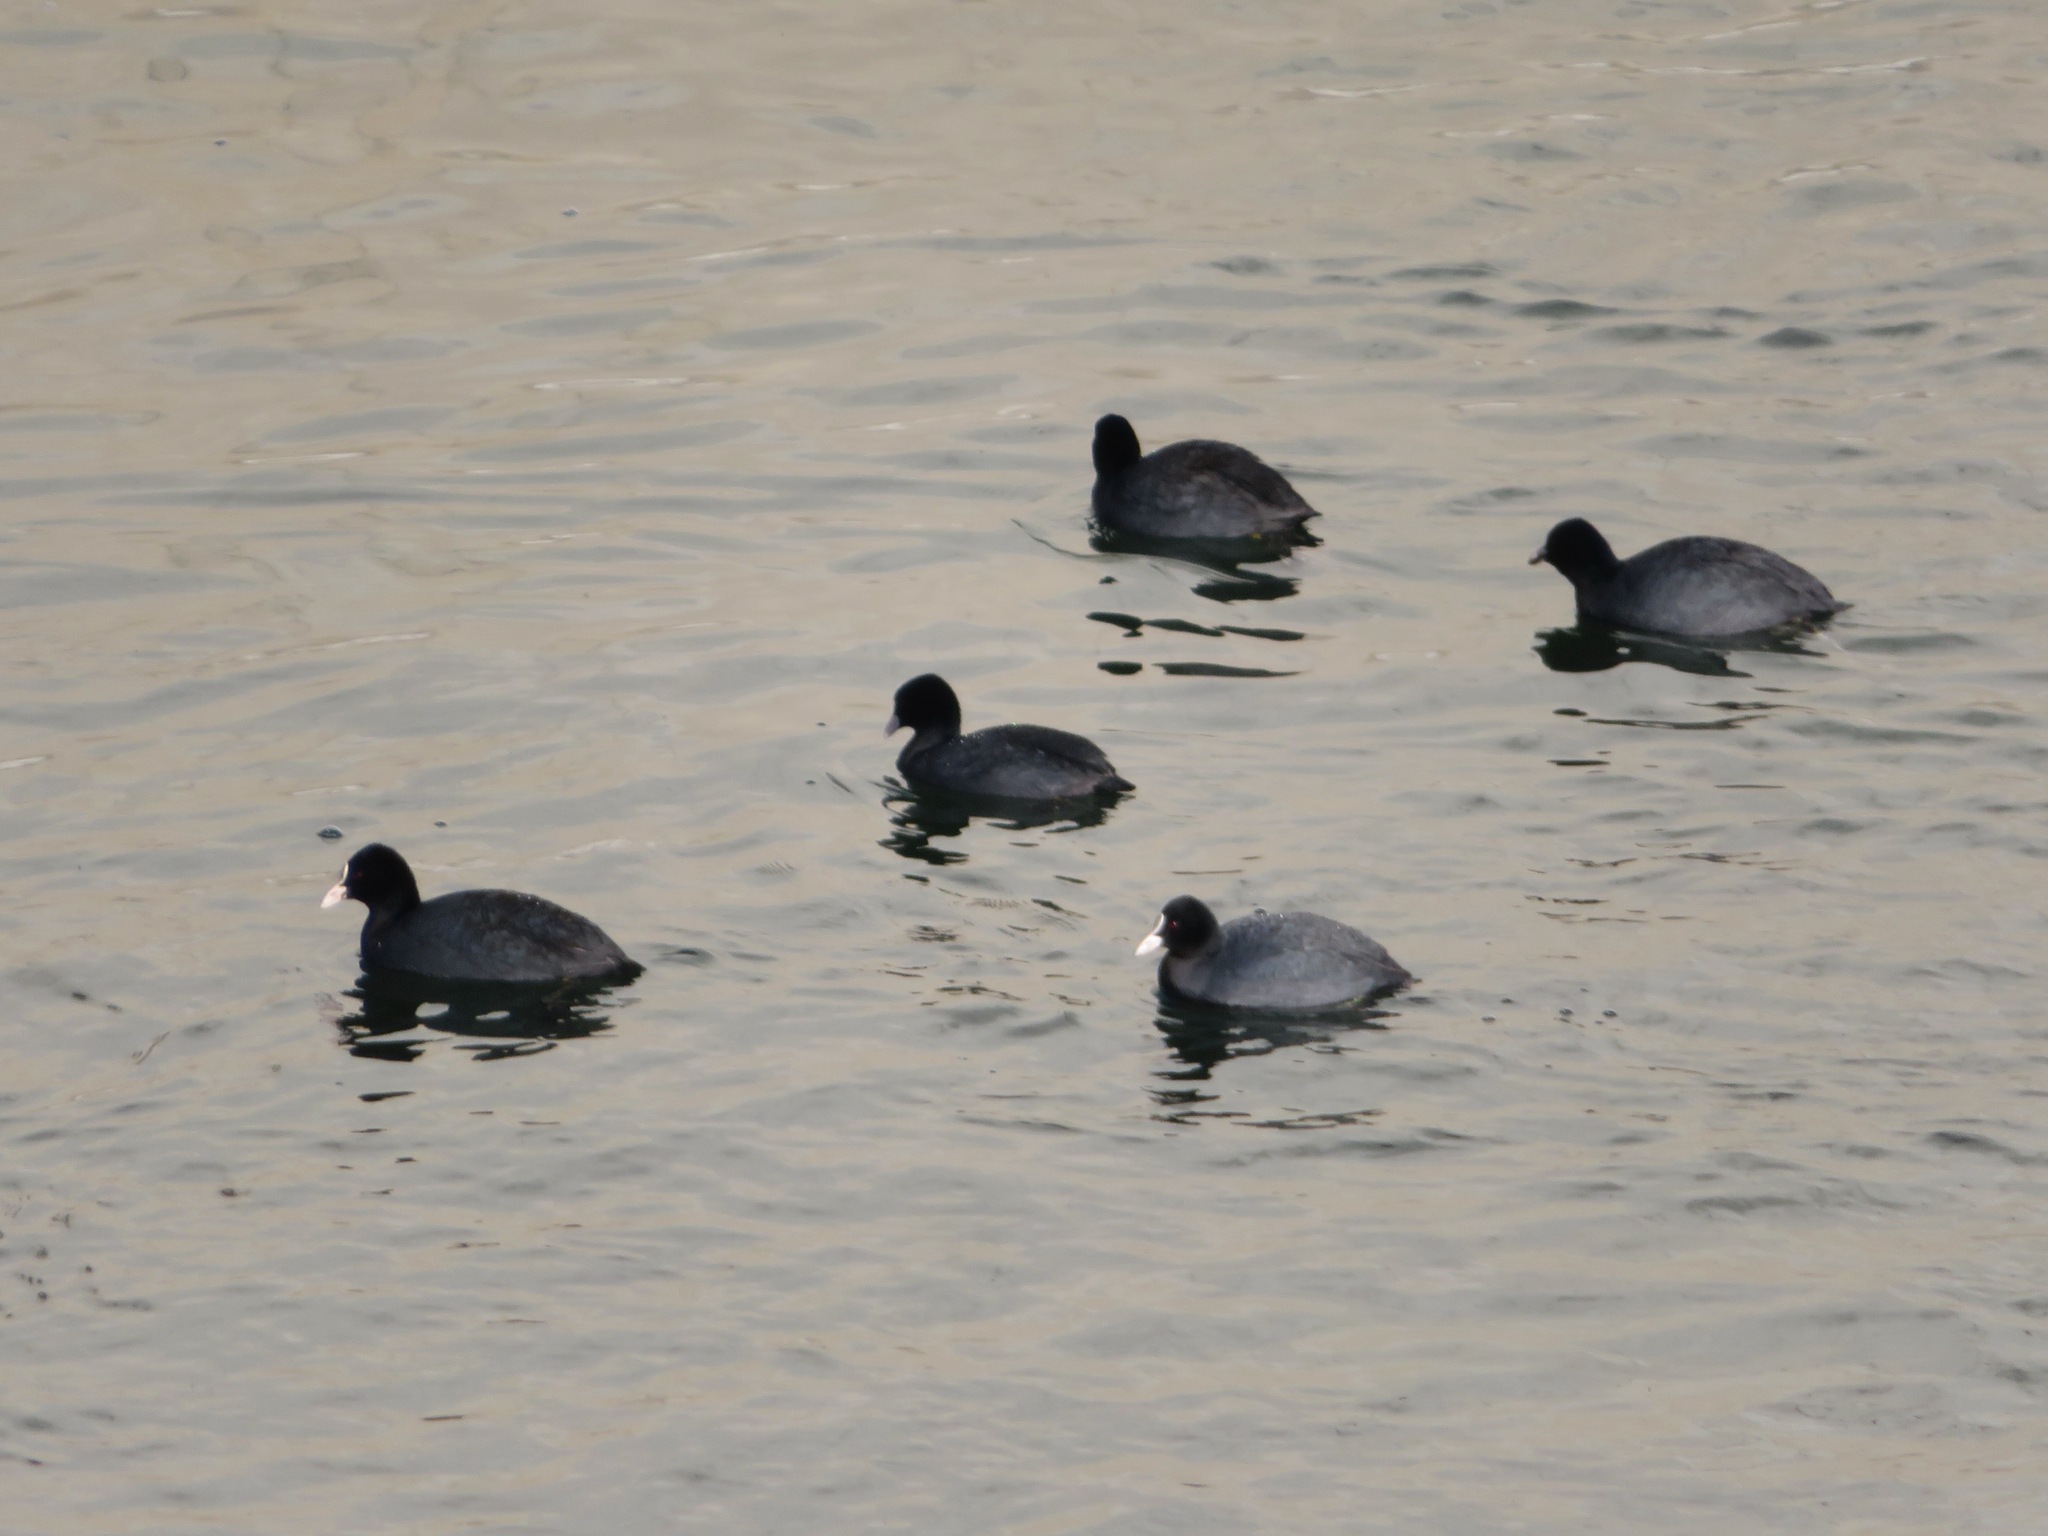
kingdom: Animalia
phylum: Chordata
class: Aves
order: Gruiformes
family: Rallidae
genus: Fulica
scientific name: Fulica atra
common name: Eurasian coot
